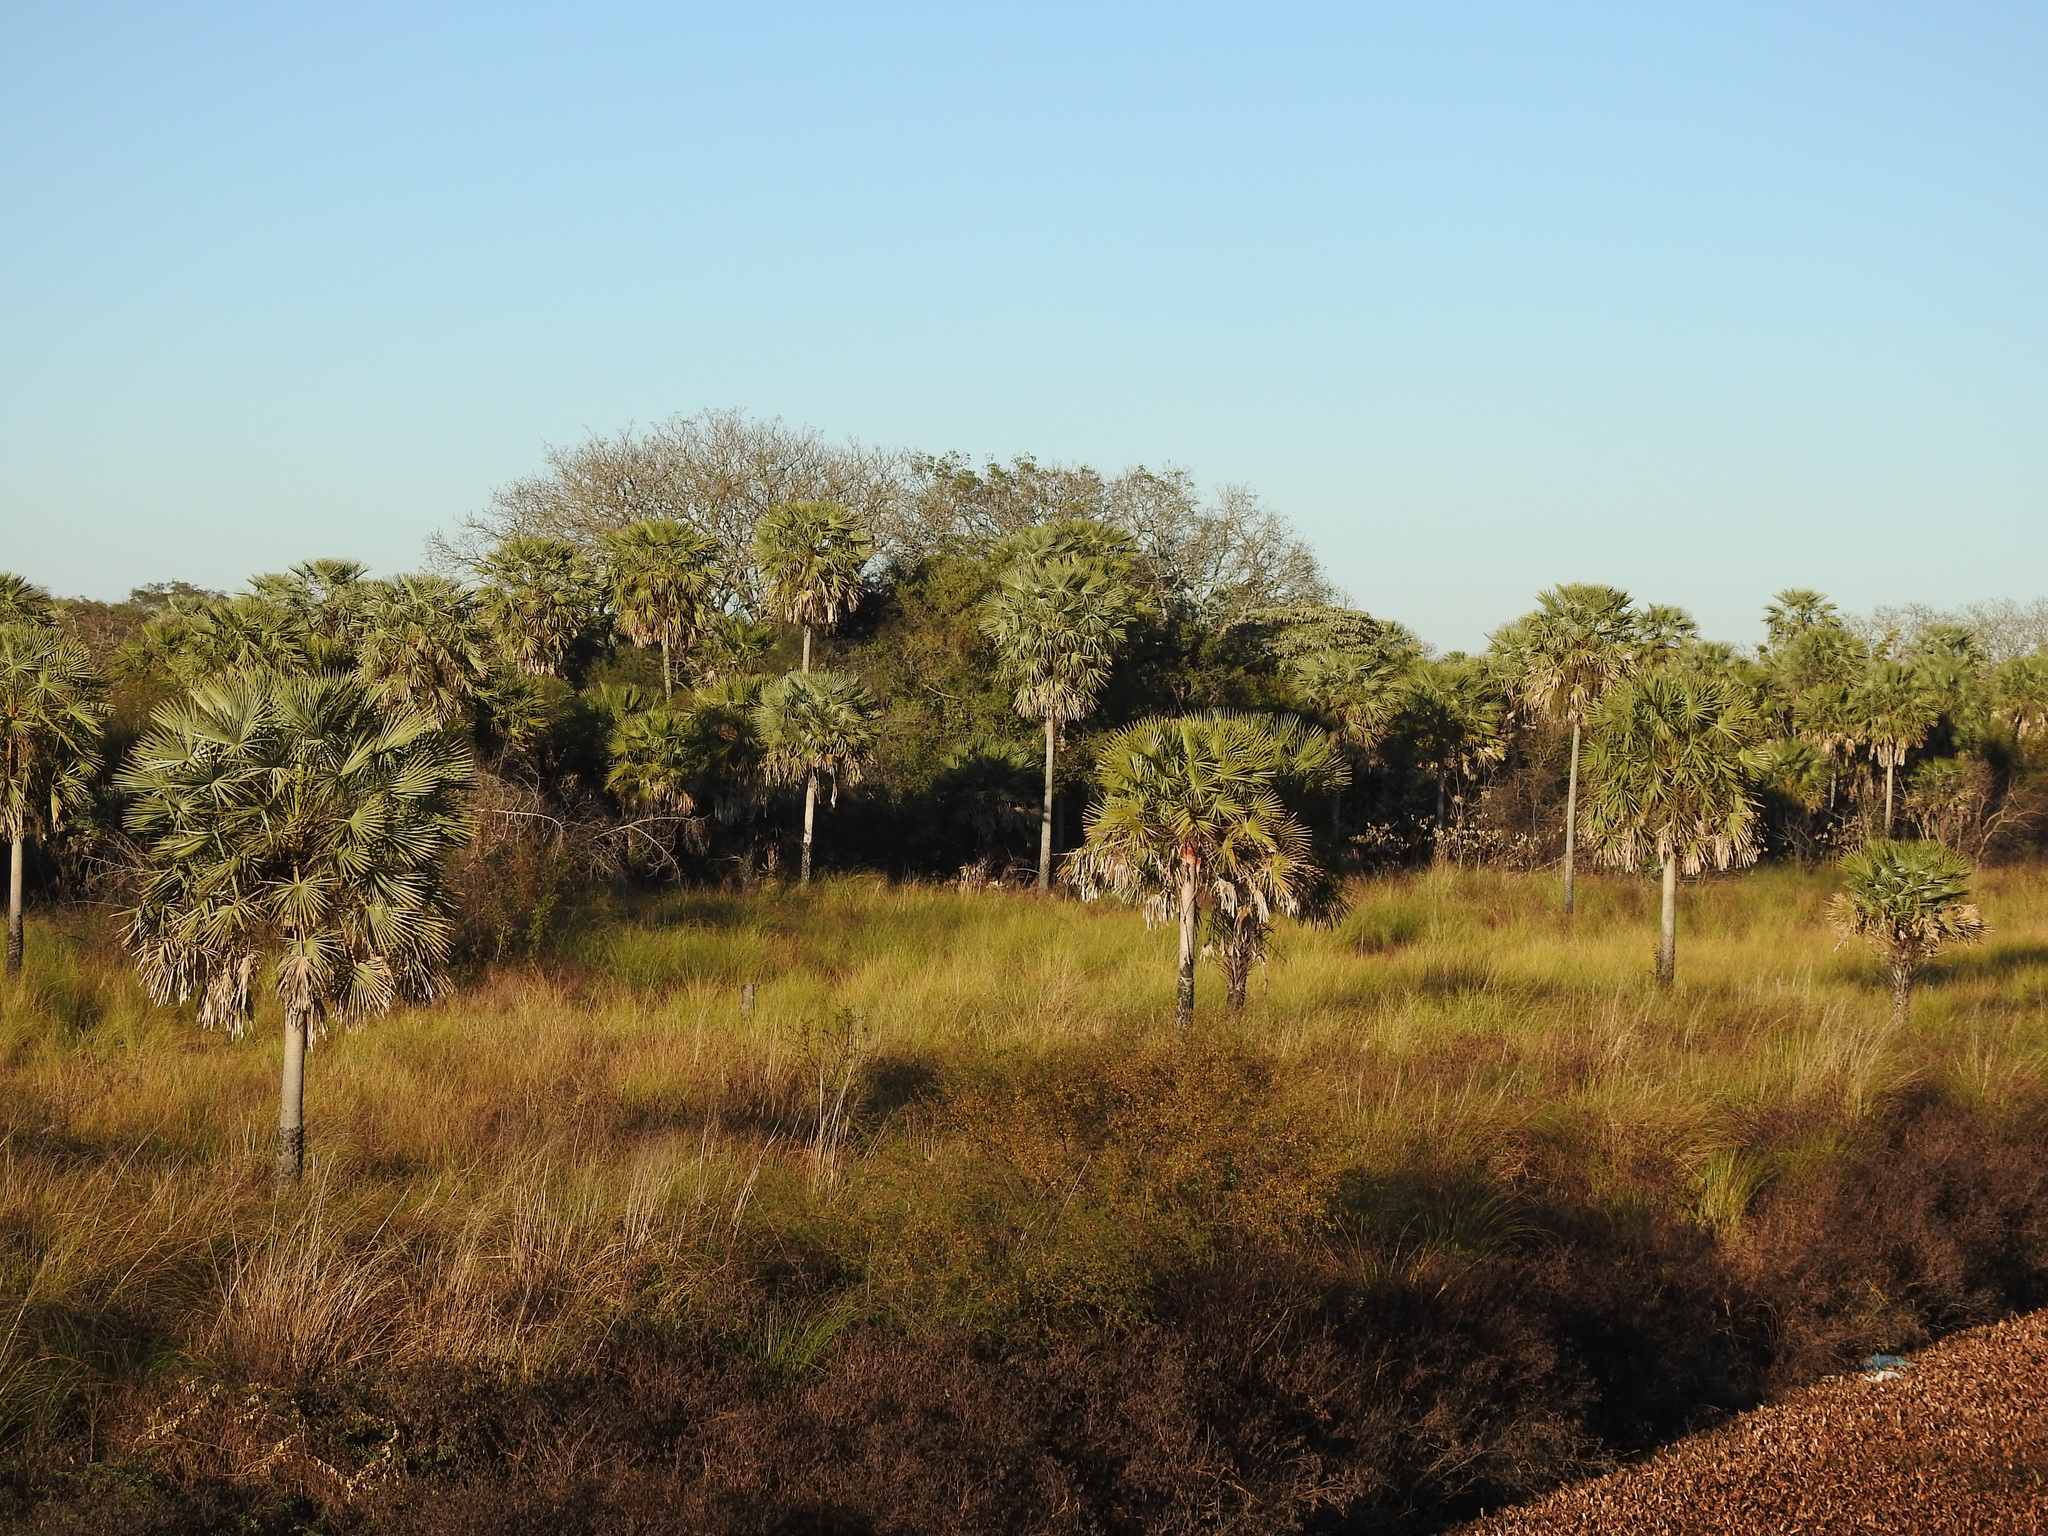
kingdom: Plantae
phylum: Tracheophyta
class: Liliopsida
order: Arecales
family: Arecaceae
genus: Copernicia
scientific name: Copernicia alba
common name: Caranday palm
